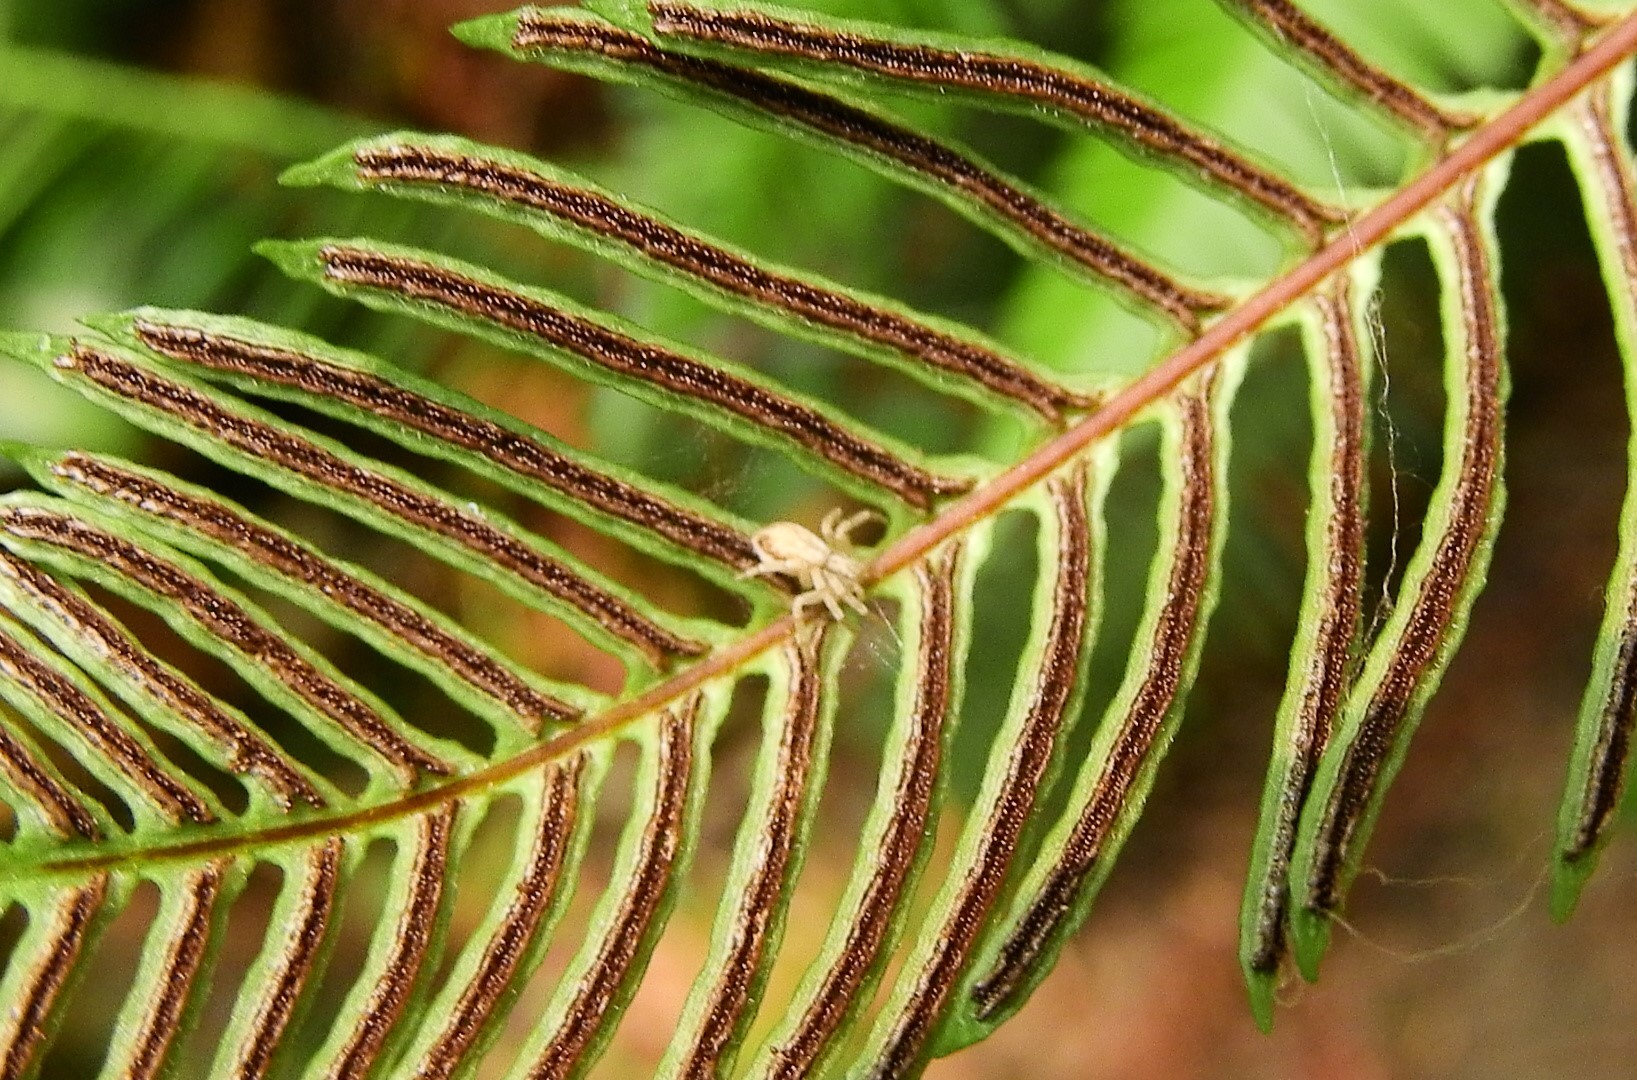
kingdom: Plantae
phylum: Tracheophyta
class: Polypodiopsida
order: Polypodiales
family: Blechnaceae
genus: Struthiopteris
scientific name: Struthiopteris spicant
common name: Deer fern
